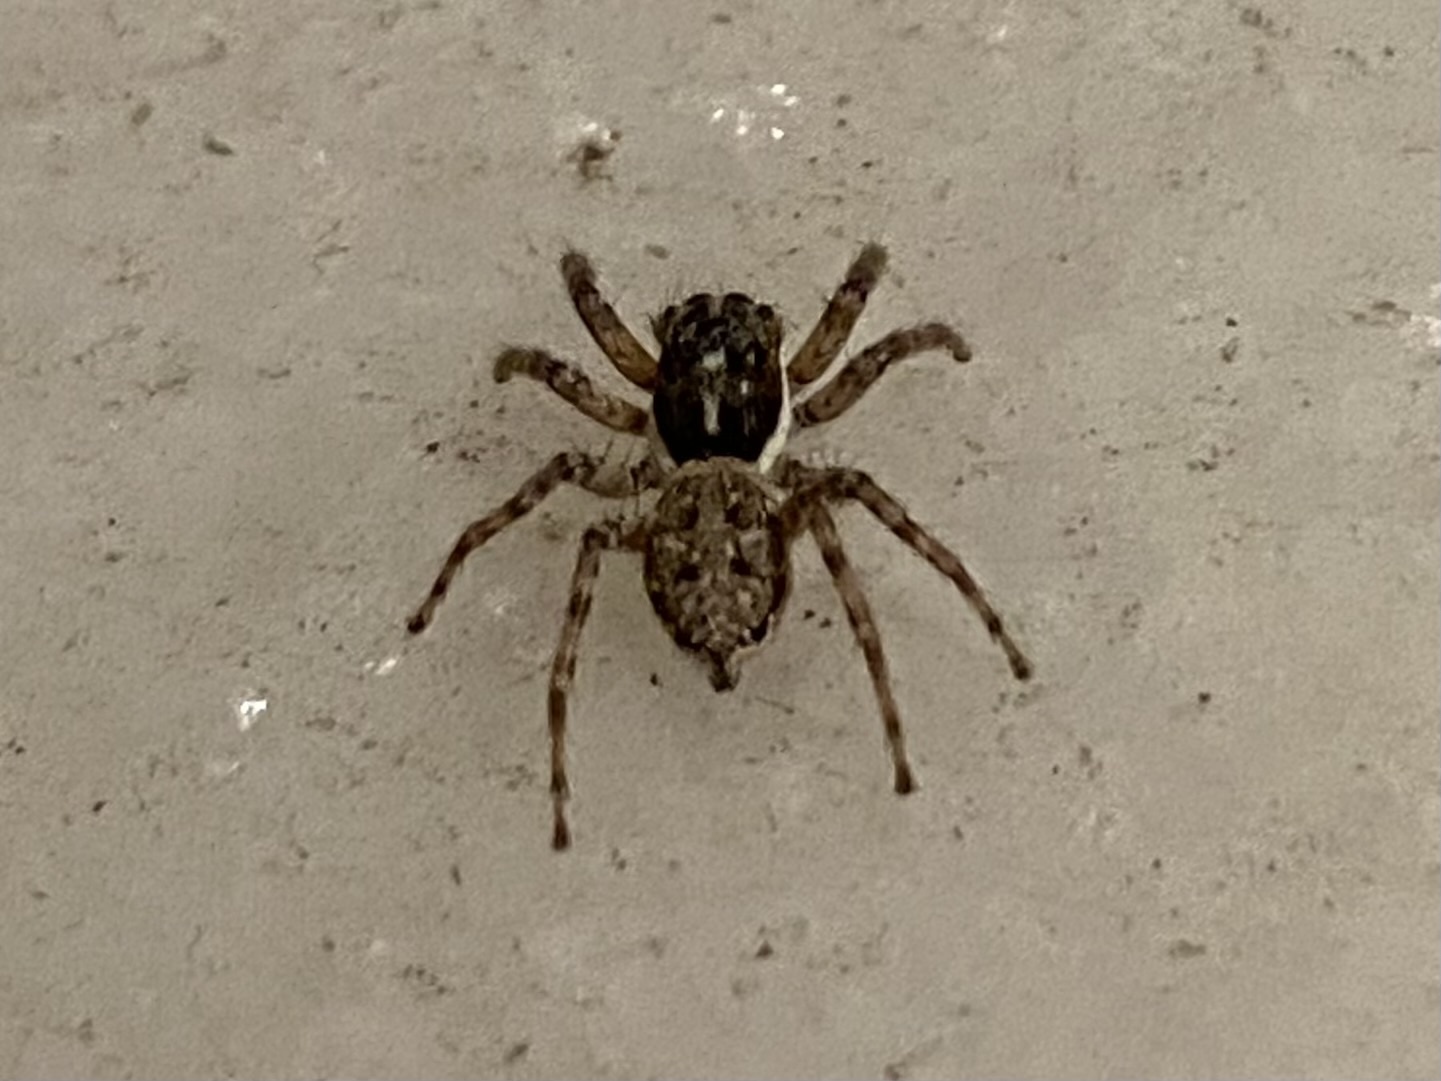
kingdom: Animalia
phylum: Arthropoda
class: Arachnida
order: Araneae
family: Salticidae
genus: Menemerus
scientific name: Menemerus semilimbatus
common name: Jumping spider
